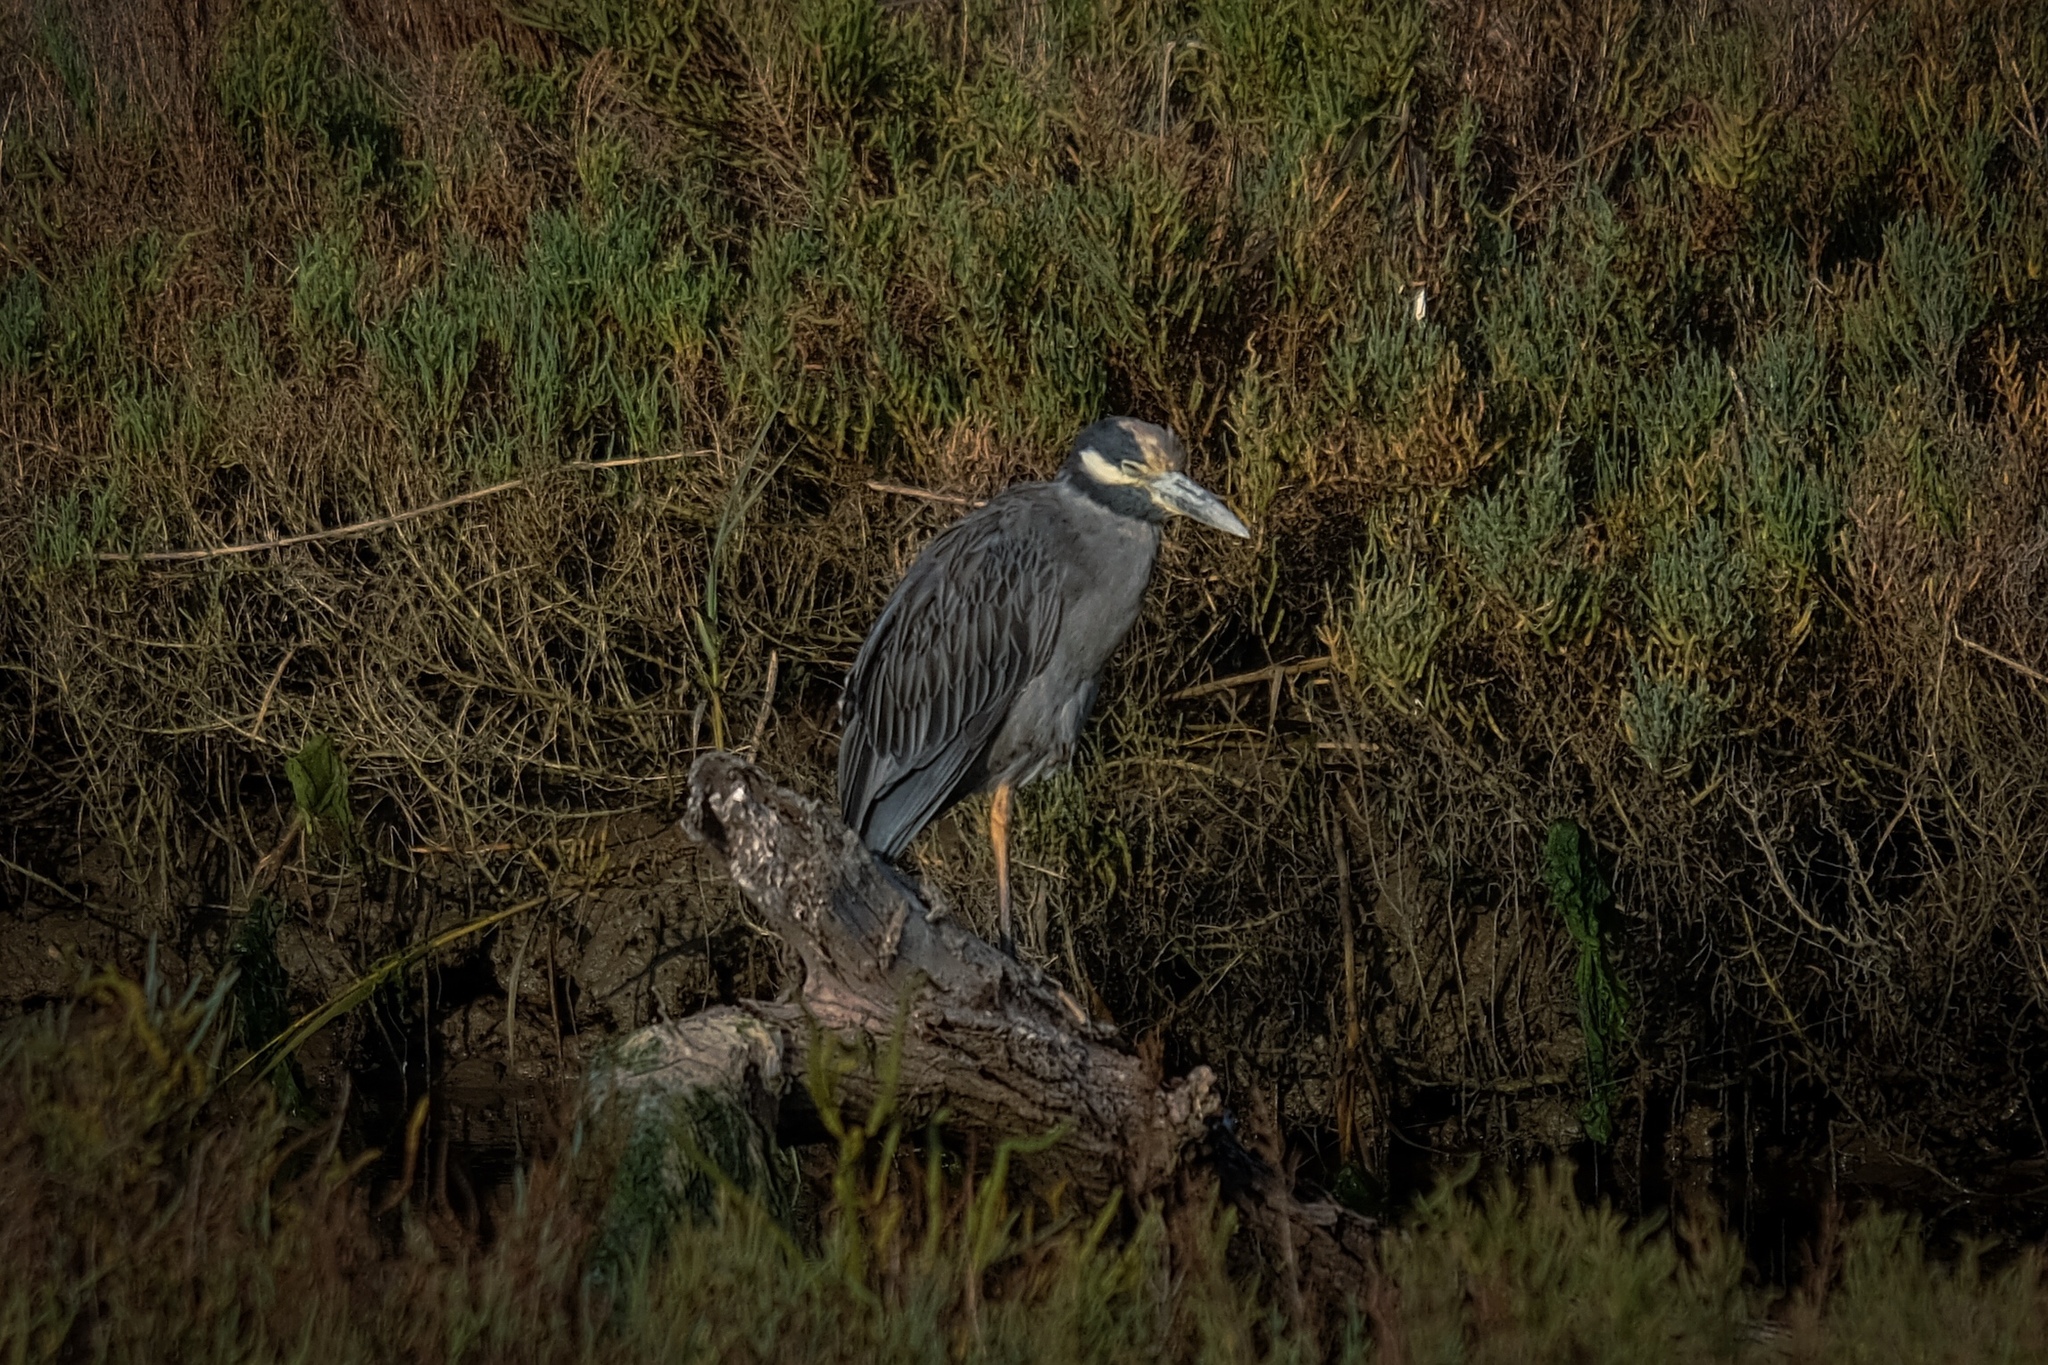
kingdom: Animalia
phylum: Chordata
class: Aves
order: Pelecaniformes
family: Ardeidae
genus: Nyctanassa
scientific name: Nyctanassa violacea
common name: Yellow-crowned night heron
